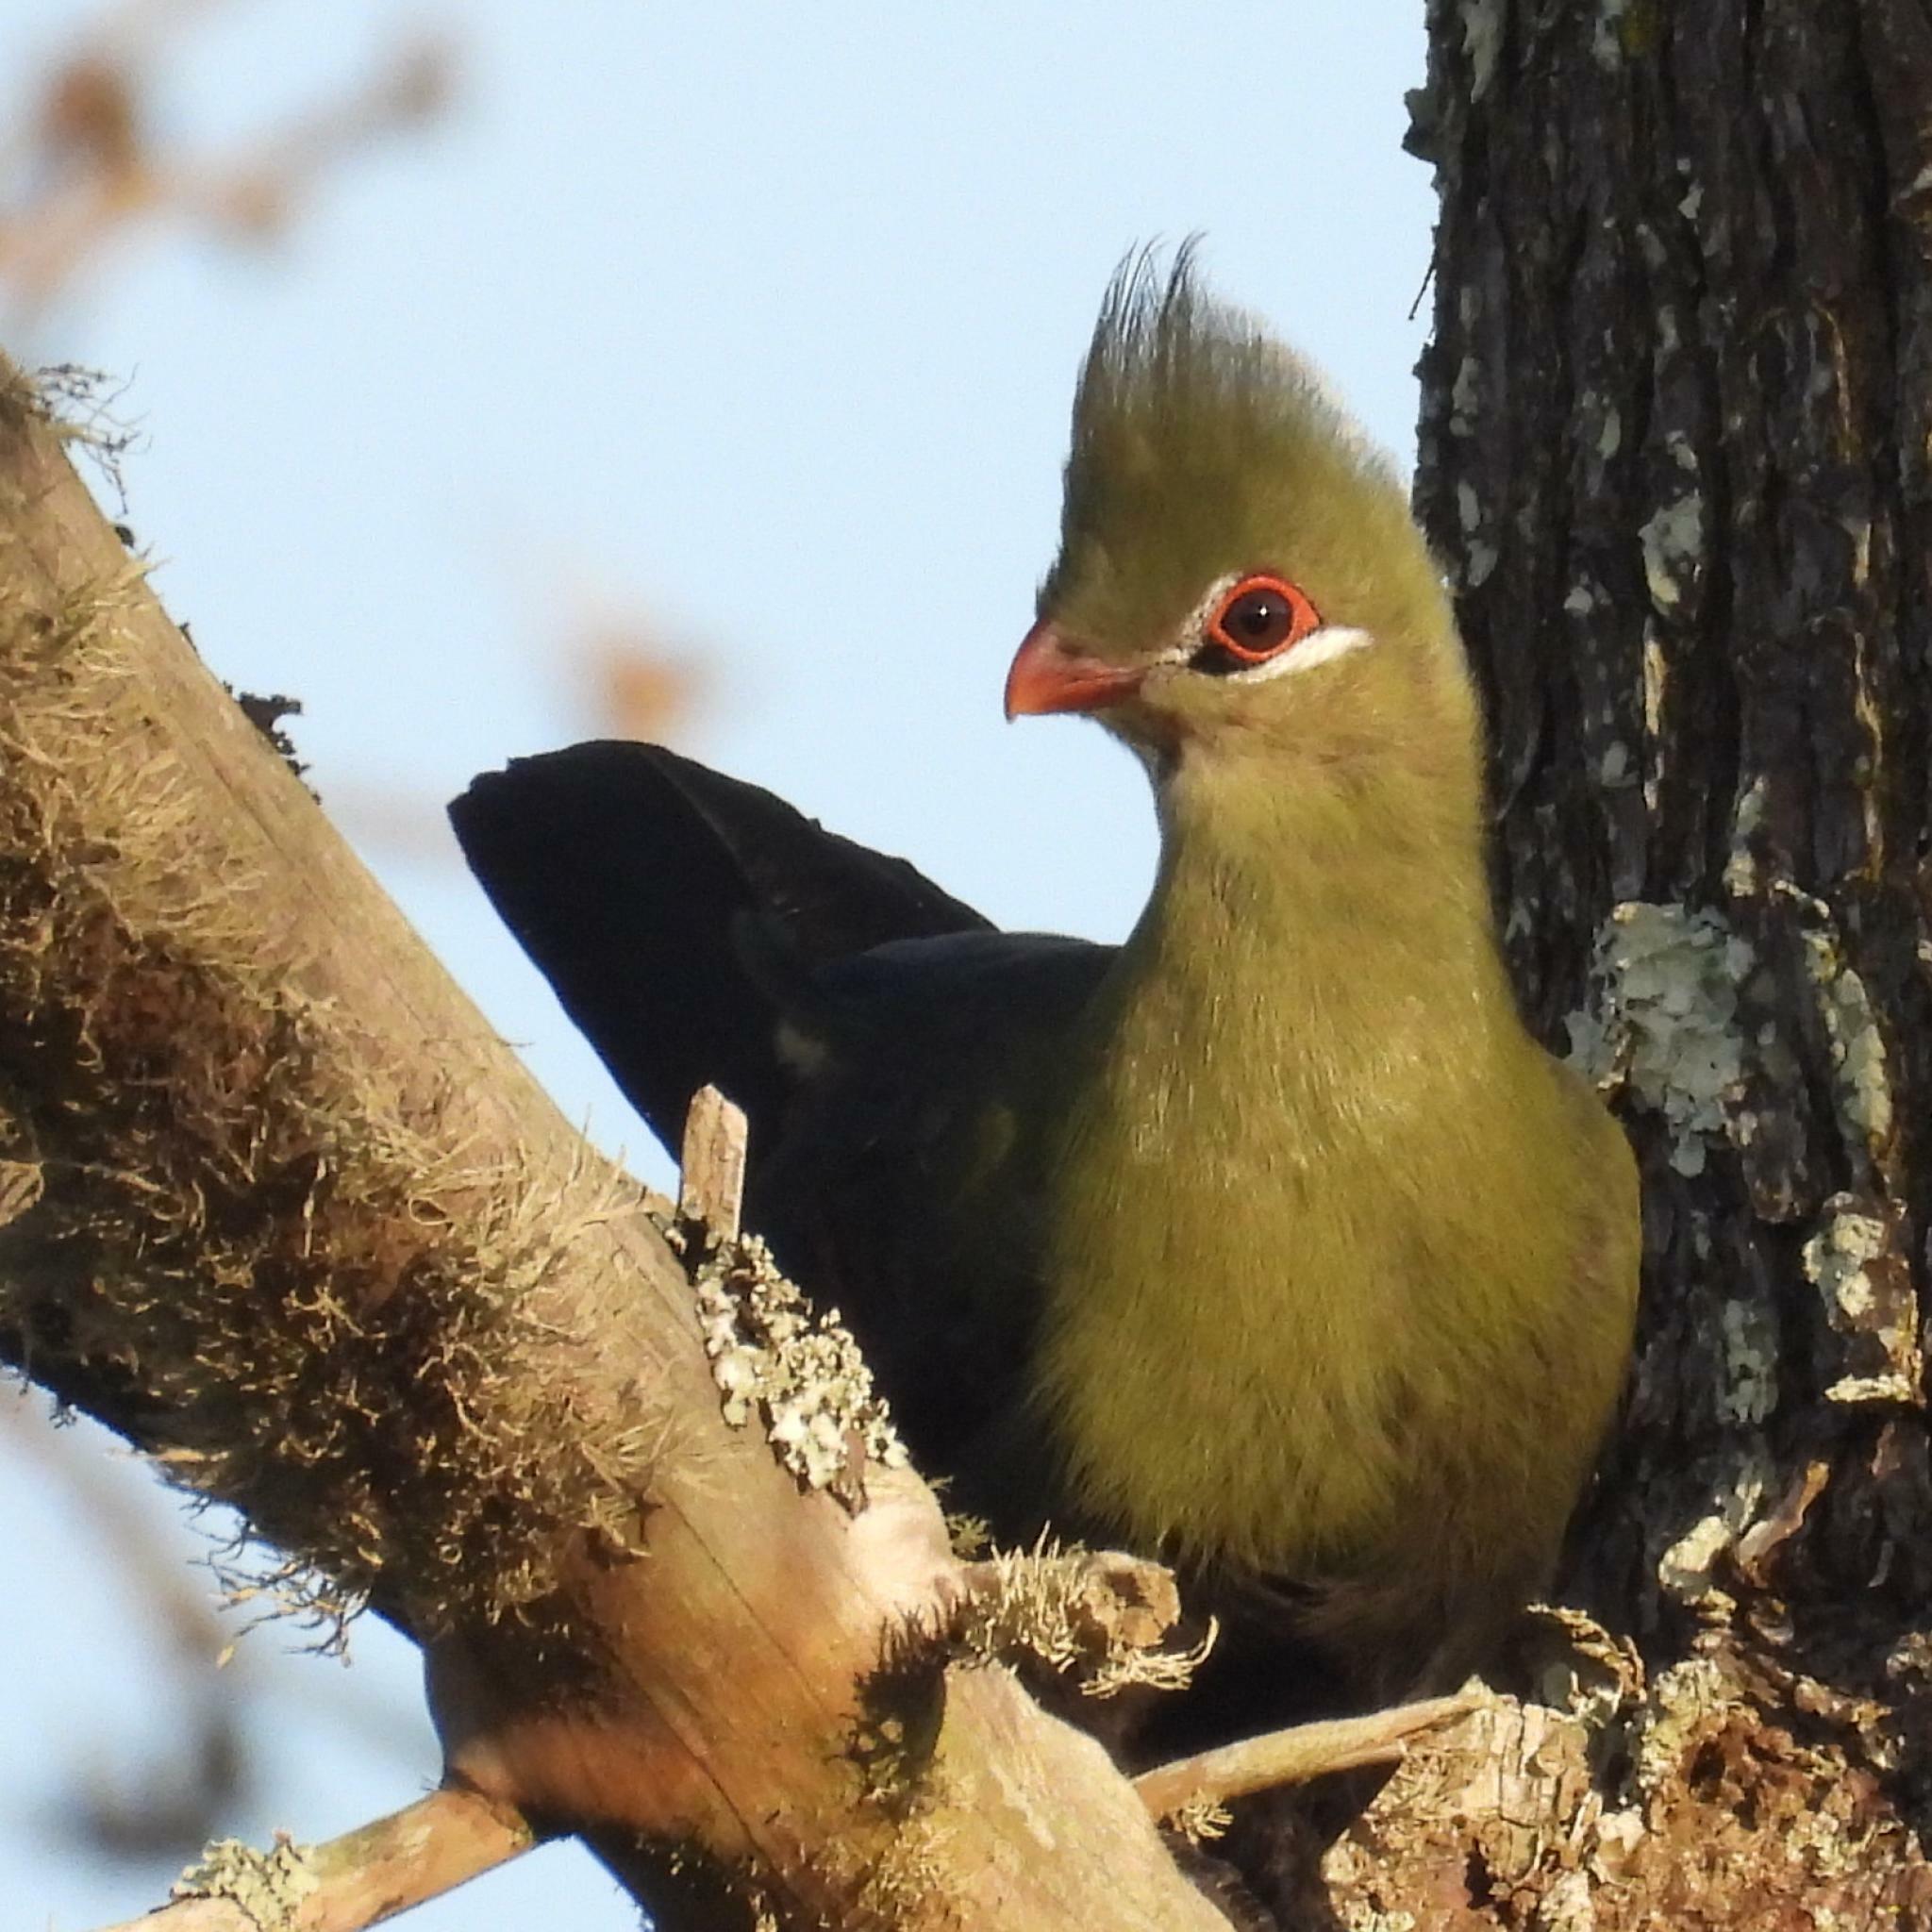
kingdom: Animalia
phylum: Chordata
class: Aves
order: Musophagiformes
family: Musophagidae
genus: Tauraco
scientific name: Tauraco corythaix
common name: Knysna turaco
